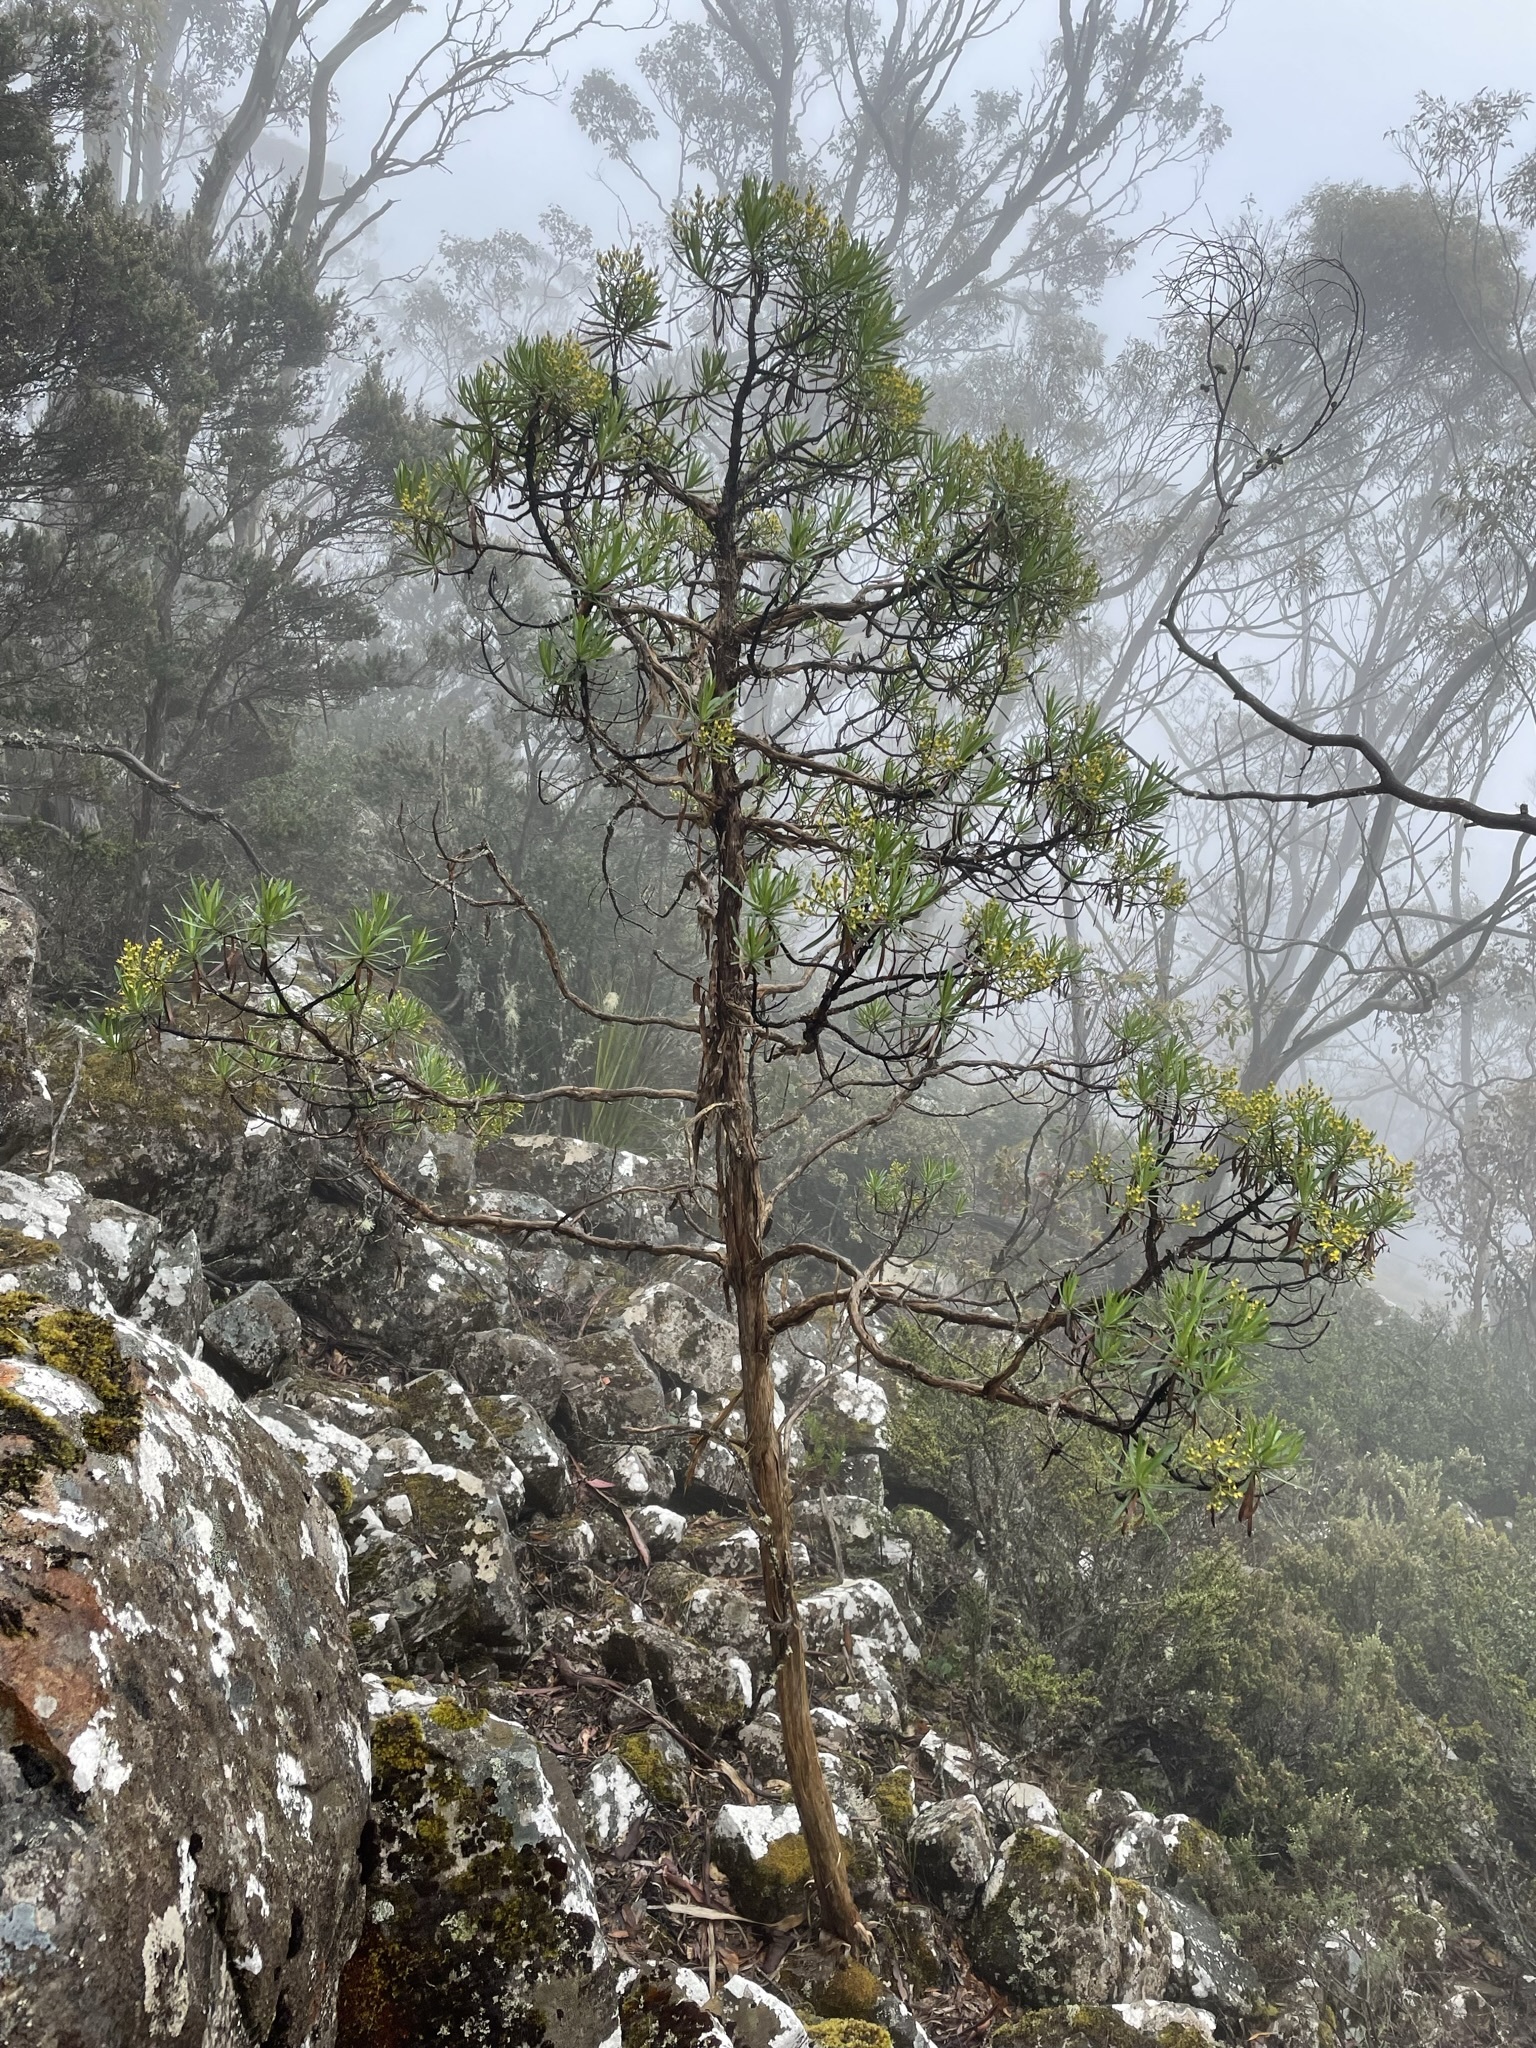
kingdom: Plantae
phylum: Tracheophyta
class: Magnoliopsida
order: Asterales
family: Asteraceae
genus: Centropappus
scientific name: Centropappus brunonis
